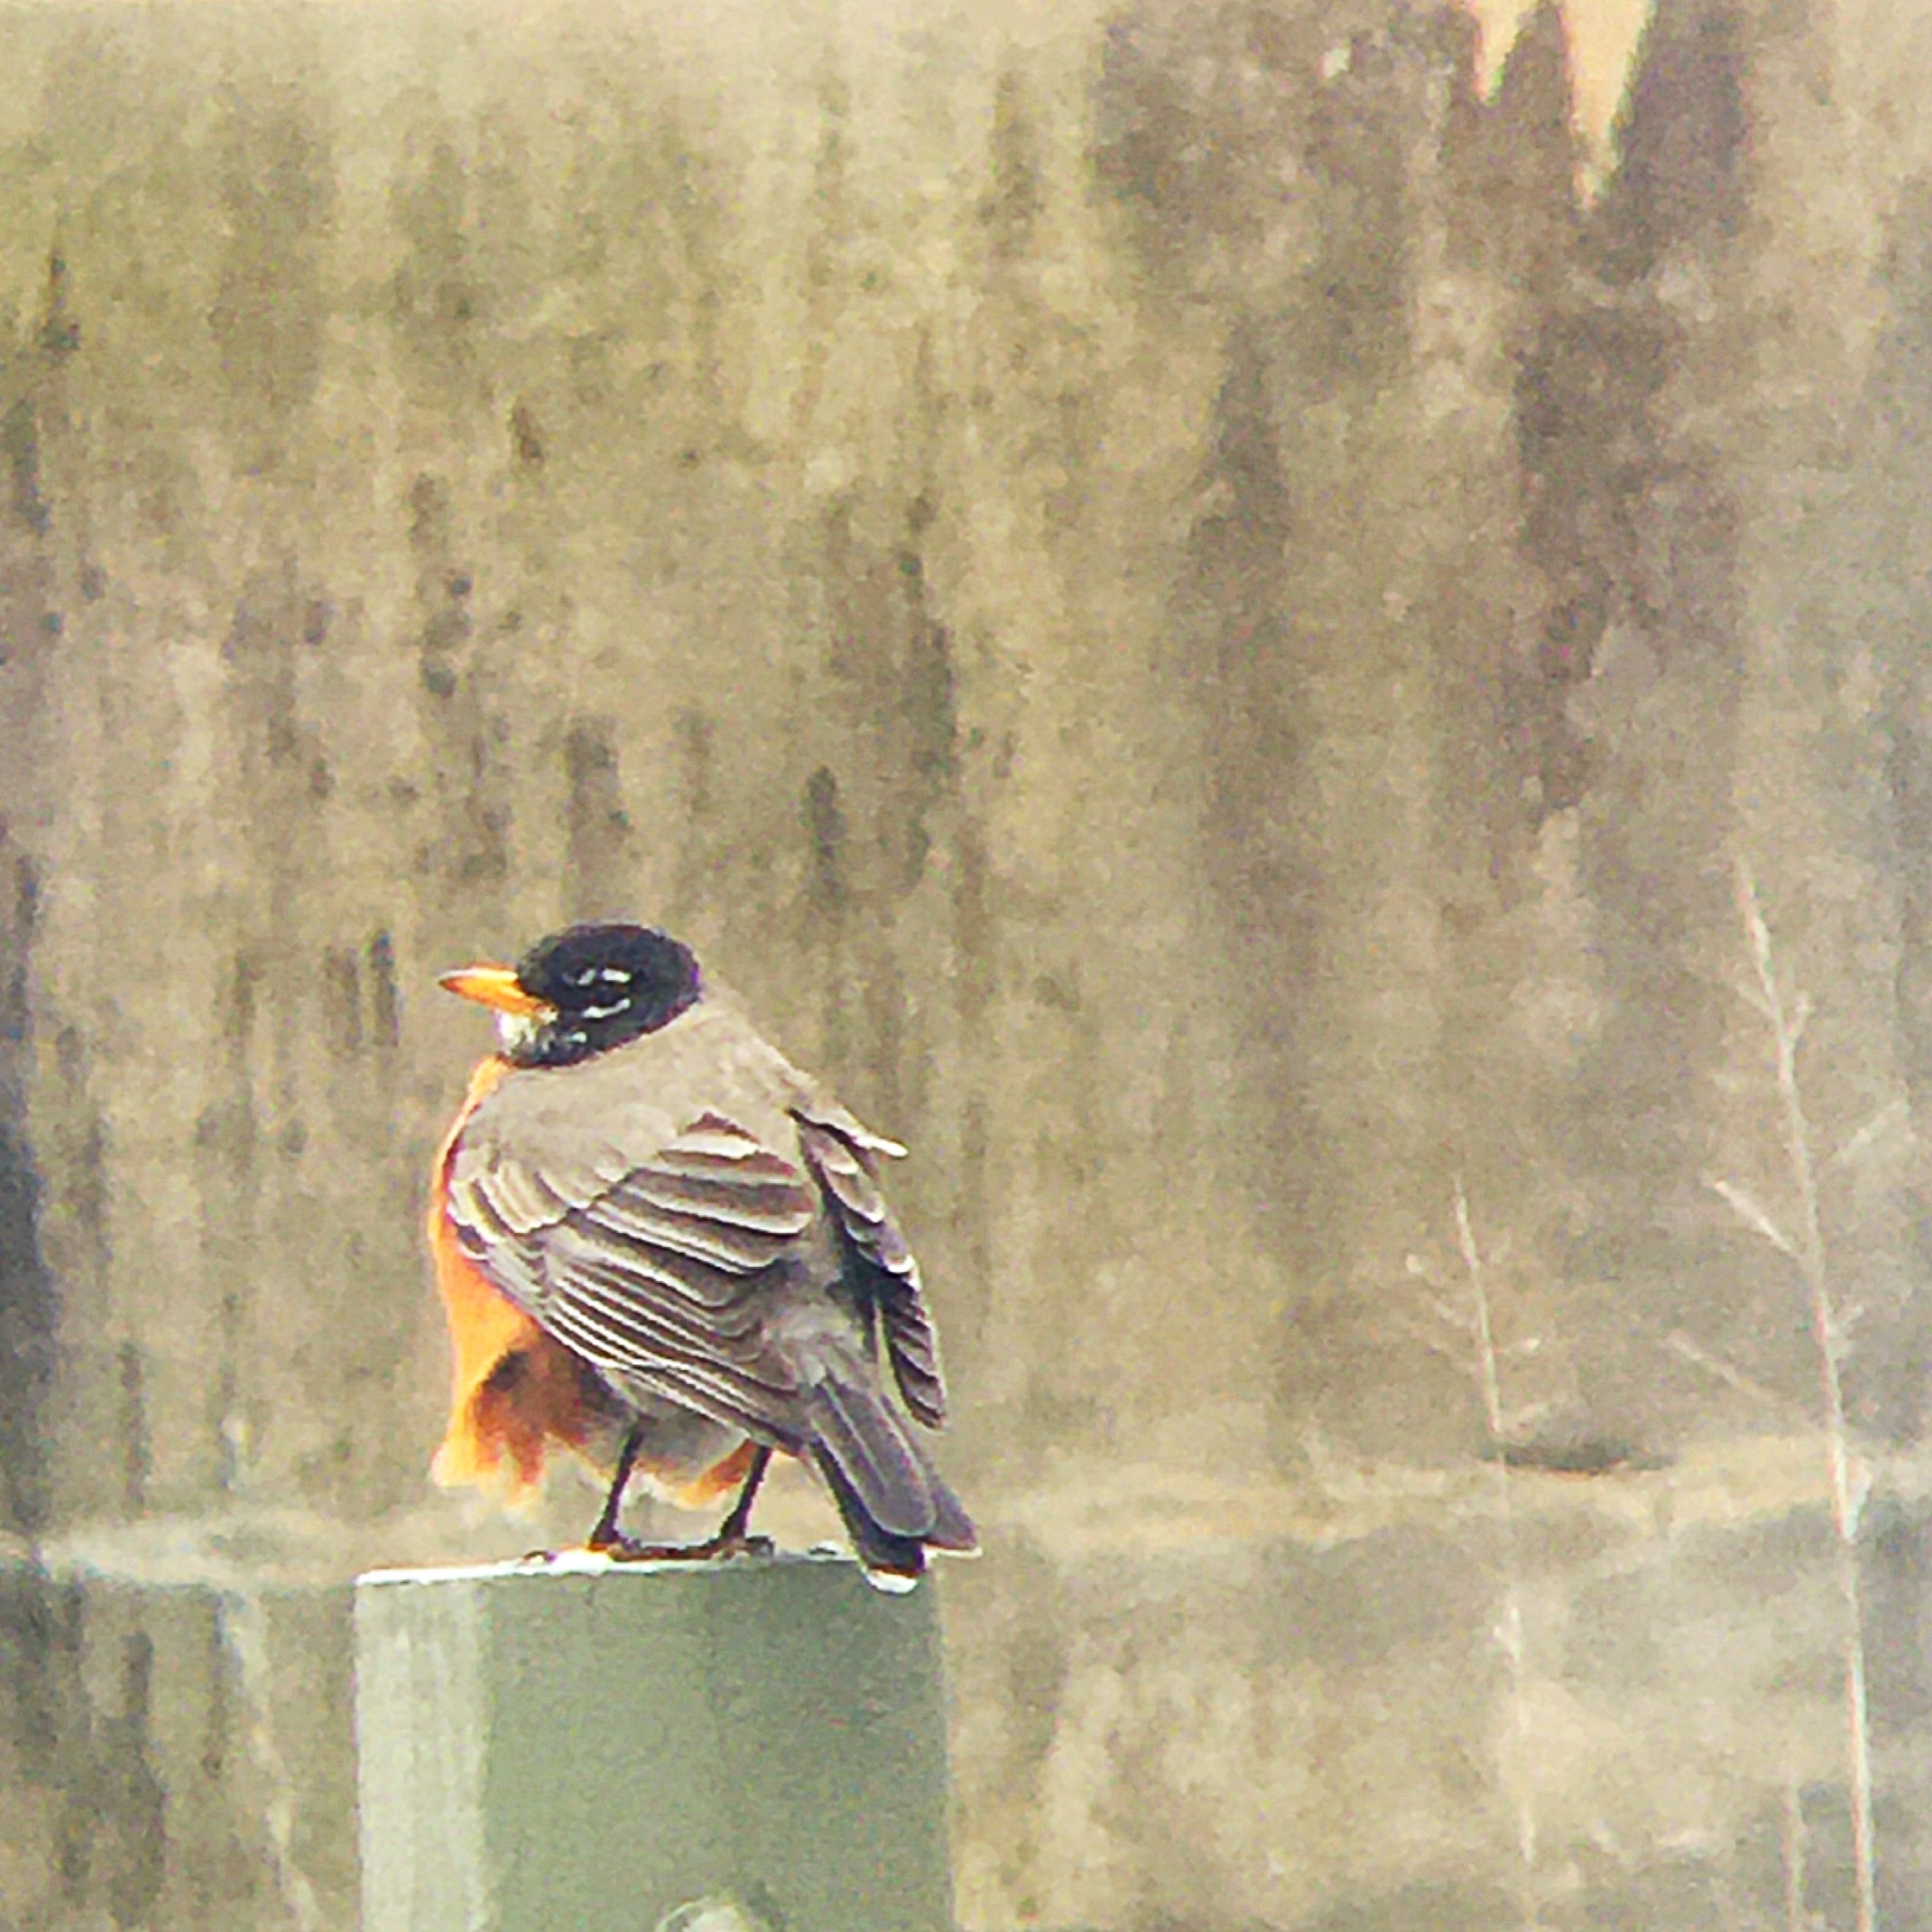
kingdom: Animalia
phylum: Chordata
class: Aves
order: Passeriformes
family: Turdidae
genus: Turdus
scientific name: Turdus migratorius
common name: American robin
